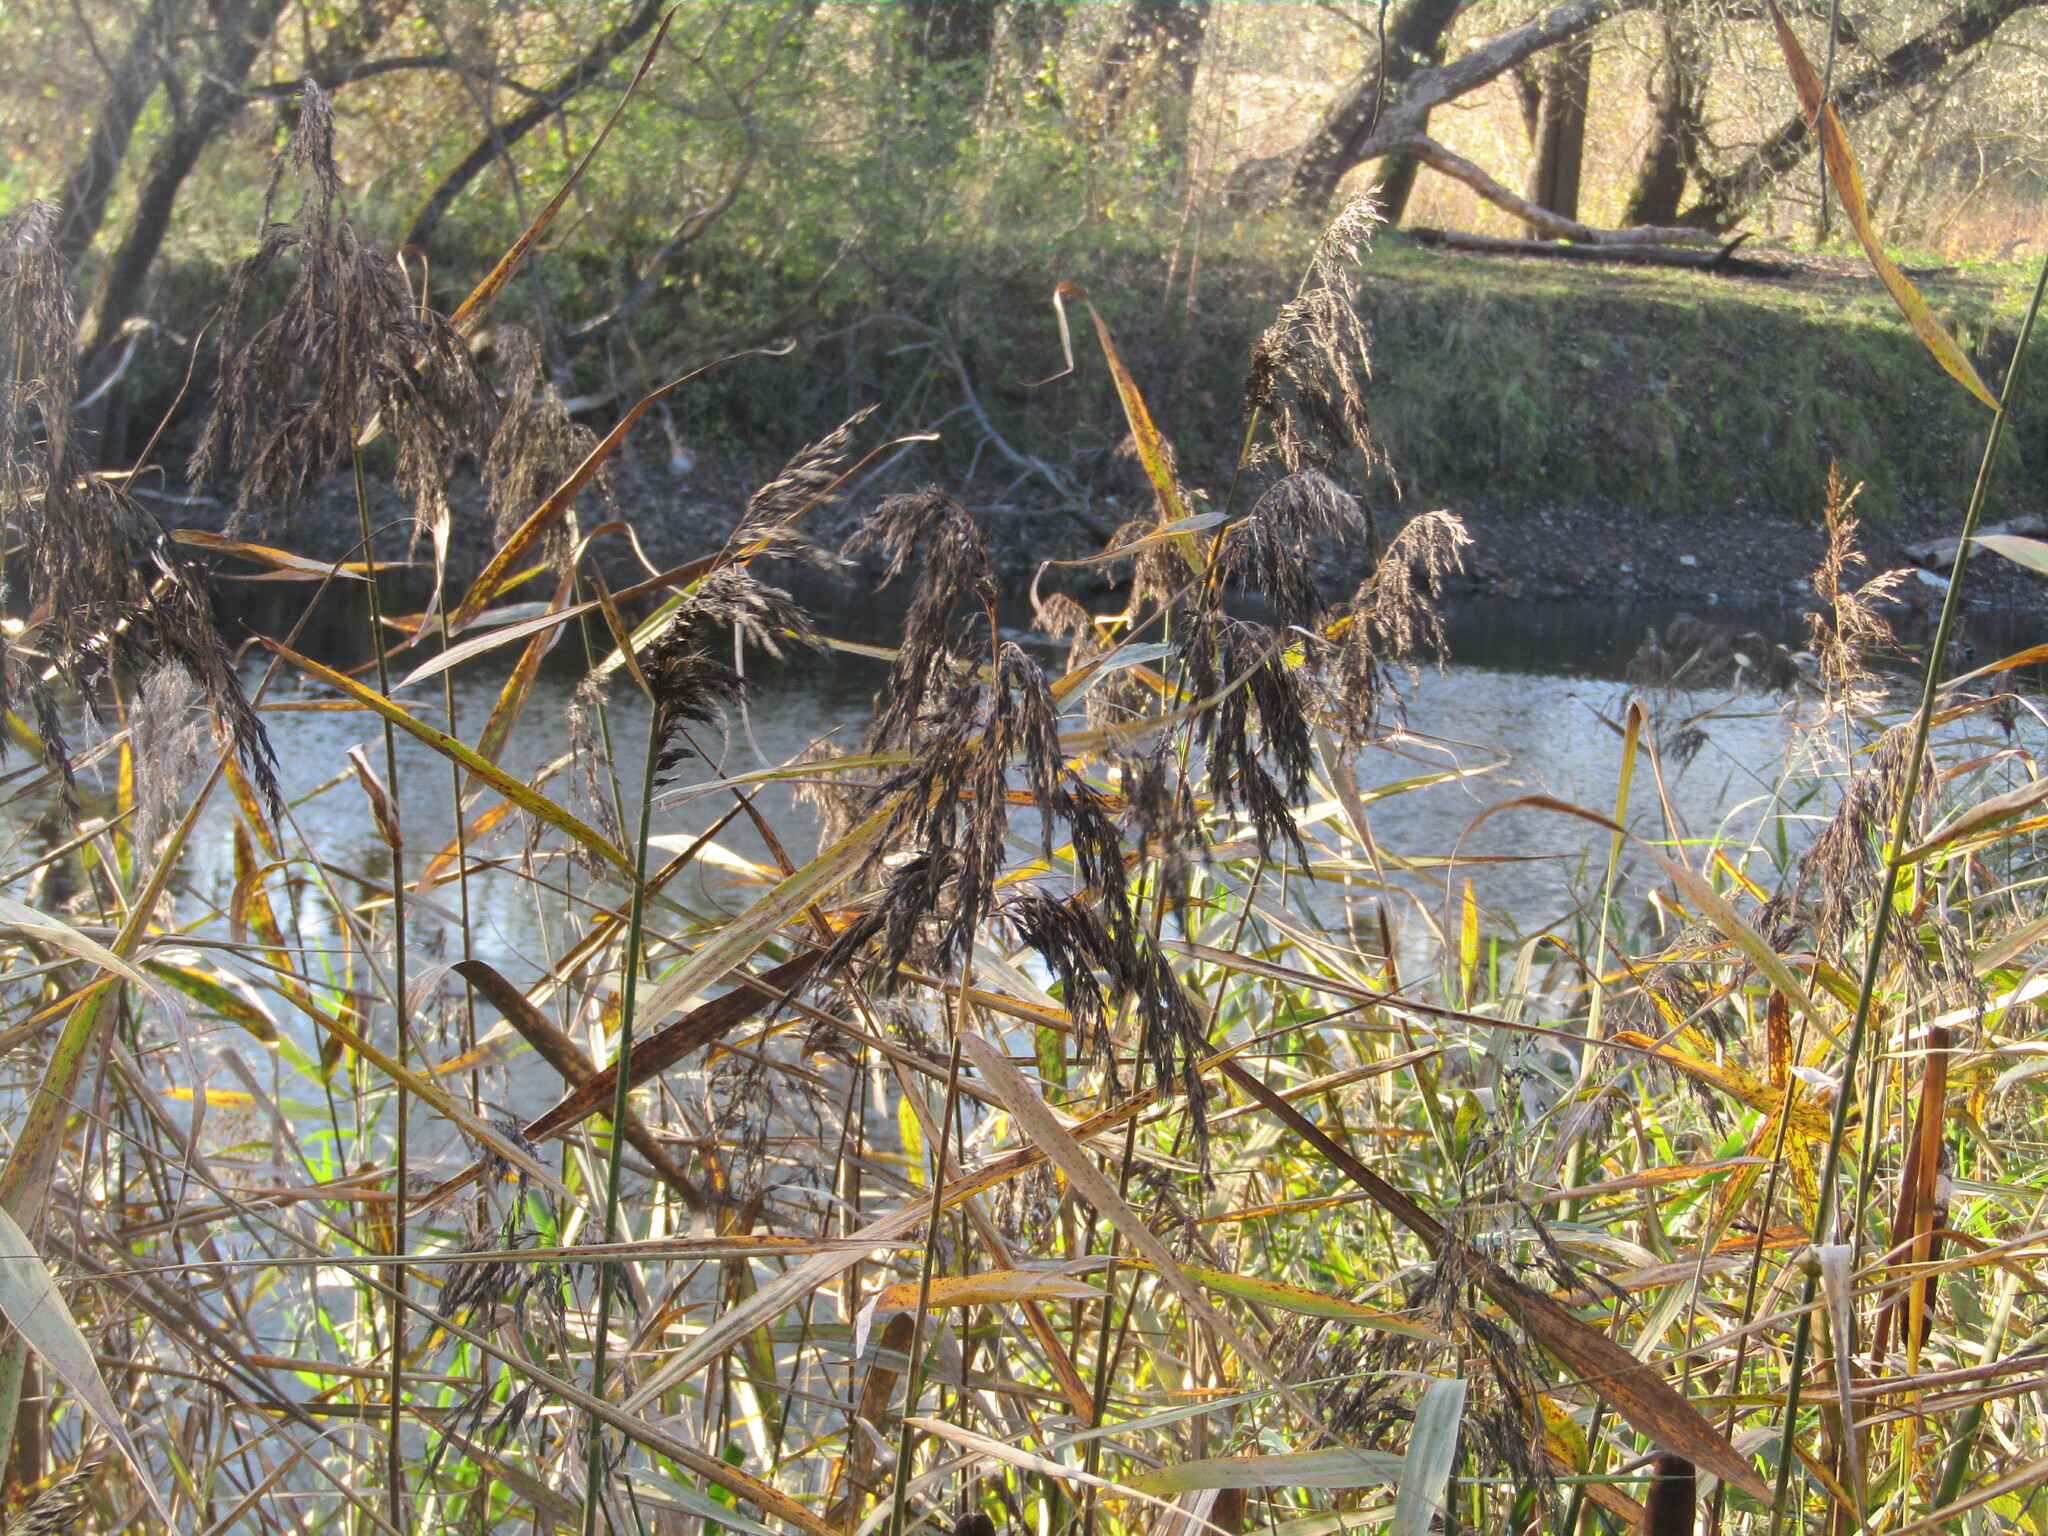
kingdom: Plantae
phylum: Tracheophyta
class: Liliopsida
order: Poales
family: Poaceae
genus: Phragmites
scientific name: Phragmites australis
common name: Common reed
